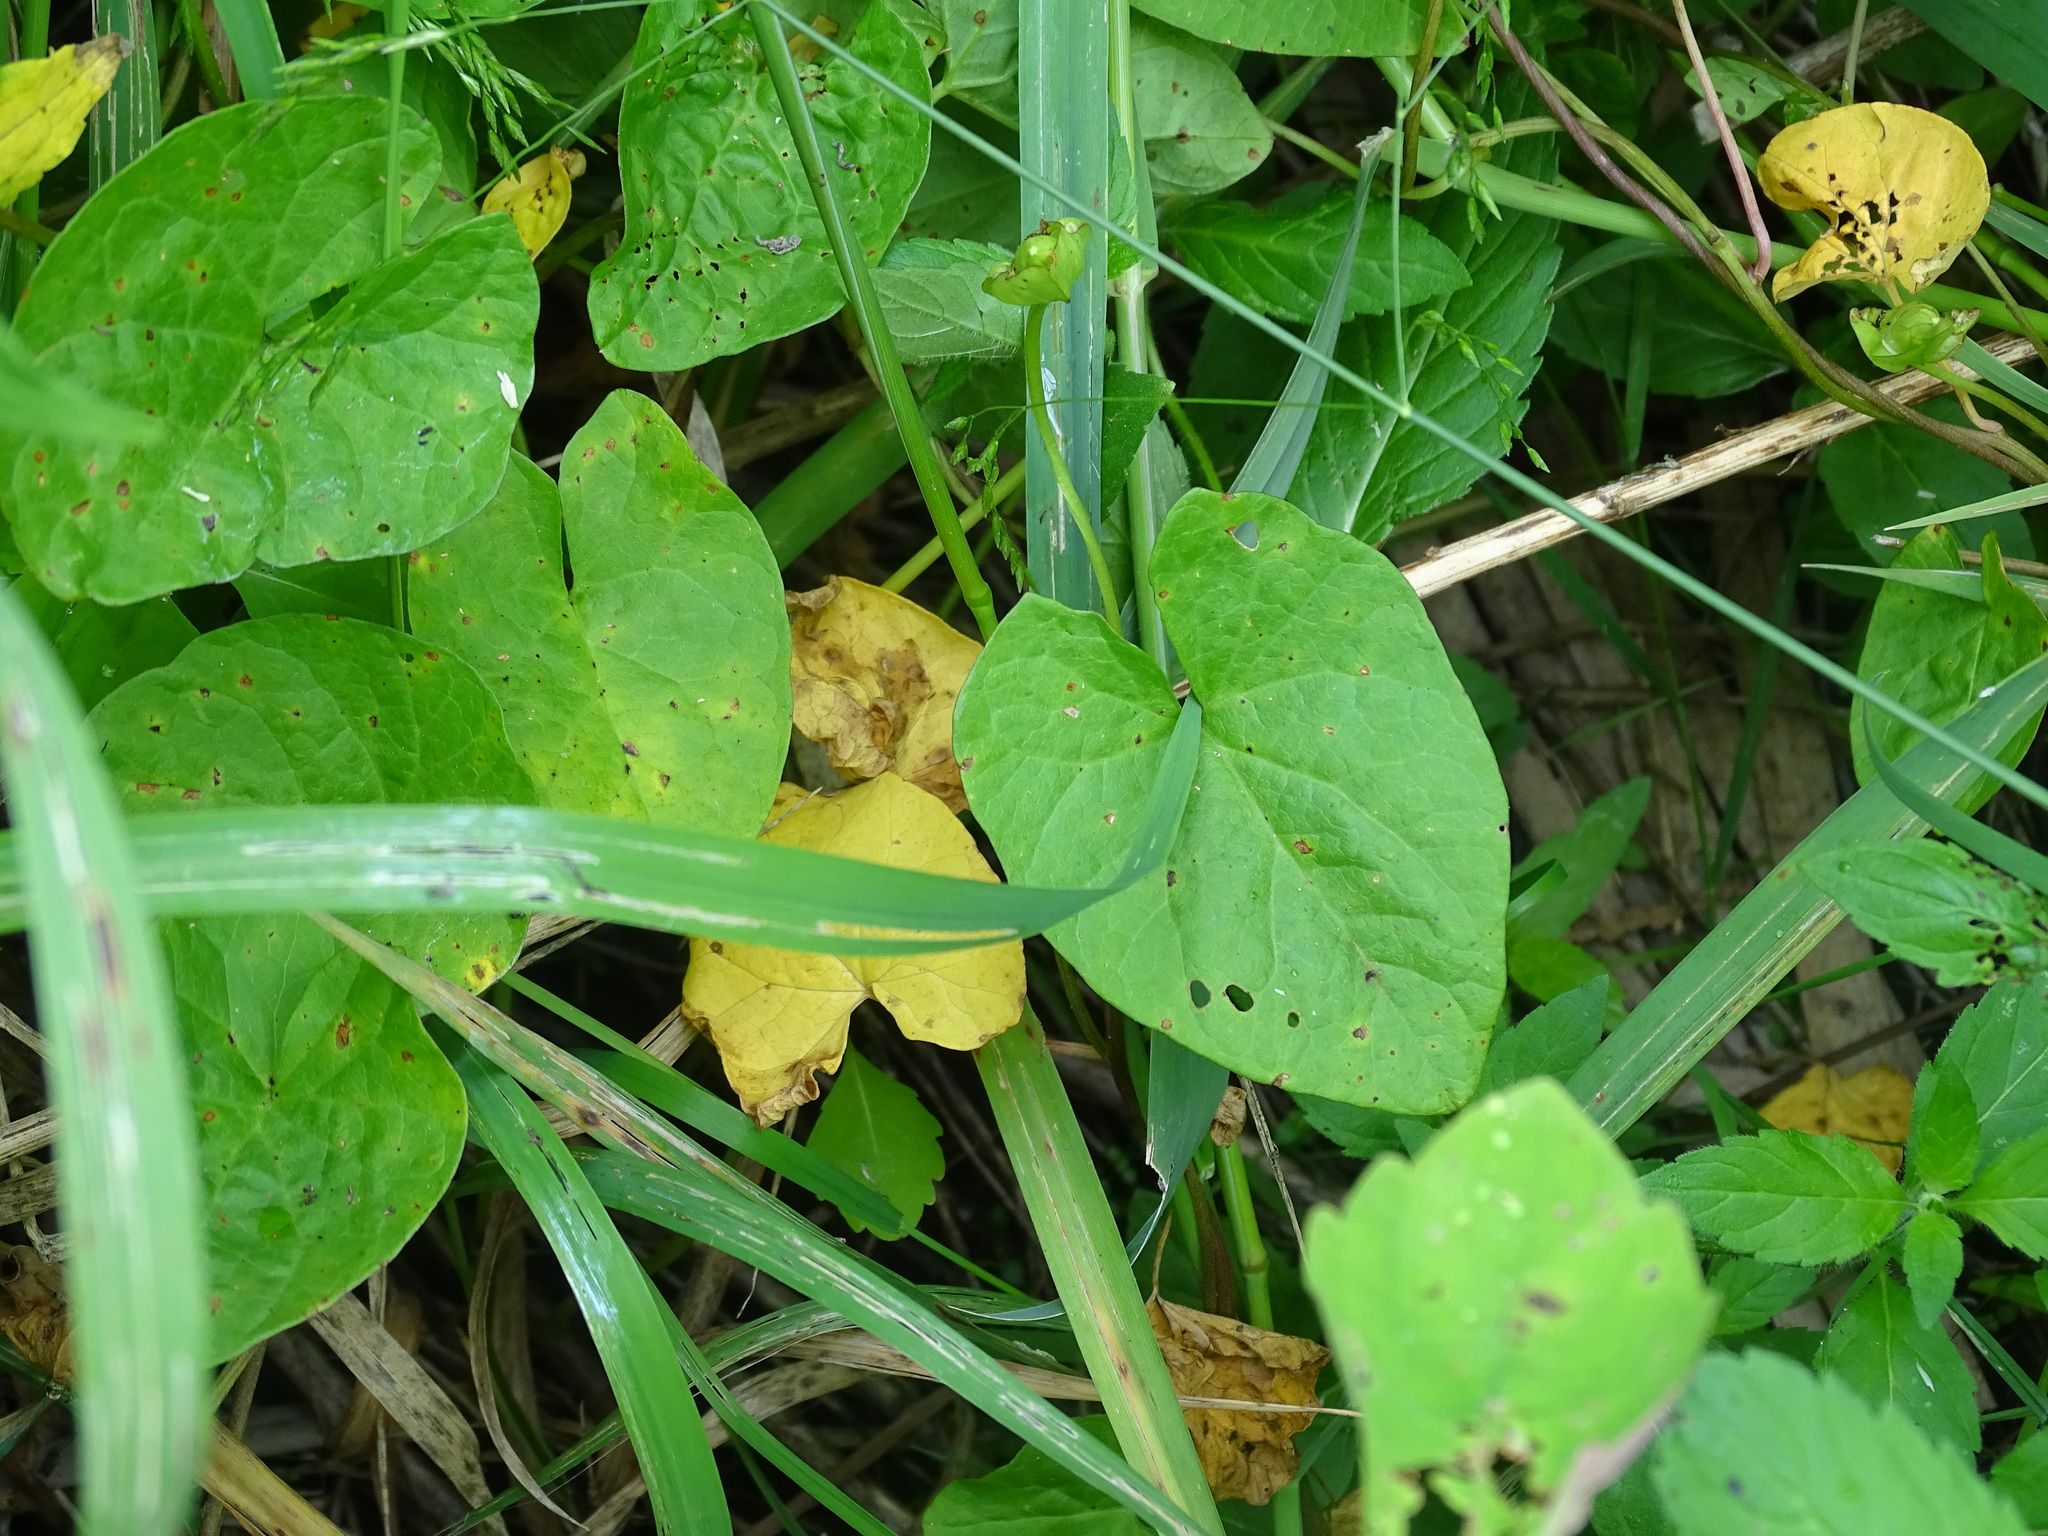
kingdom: Plantae
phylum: Tracheophyta
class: Magnoliopsida
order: Solanales
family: Convolvulaceae
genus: Calystegia
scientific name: Calystegia sepium
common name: Hedge bindweed
